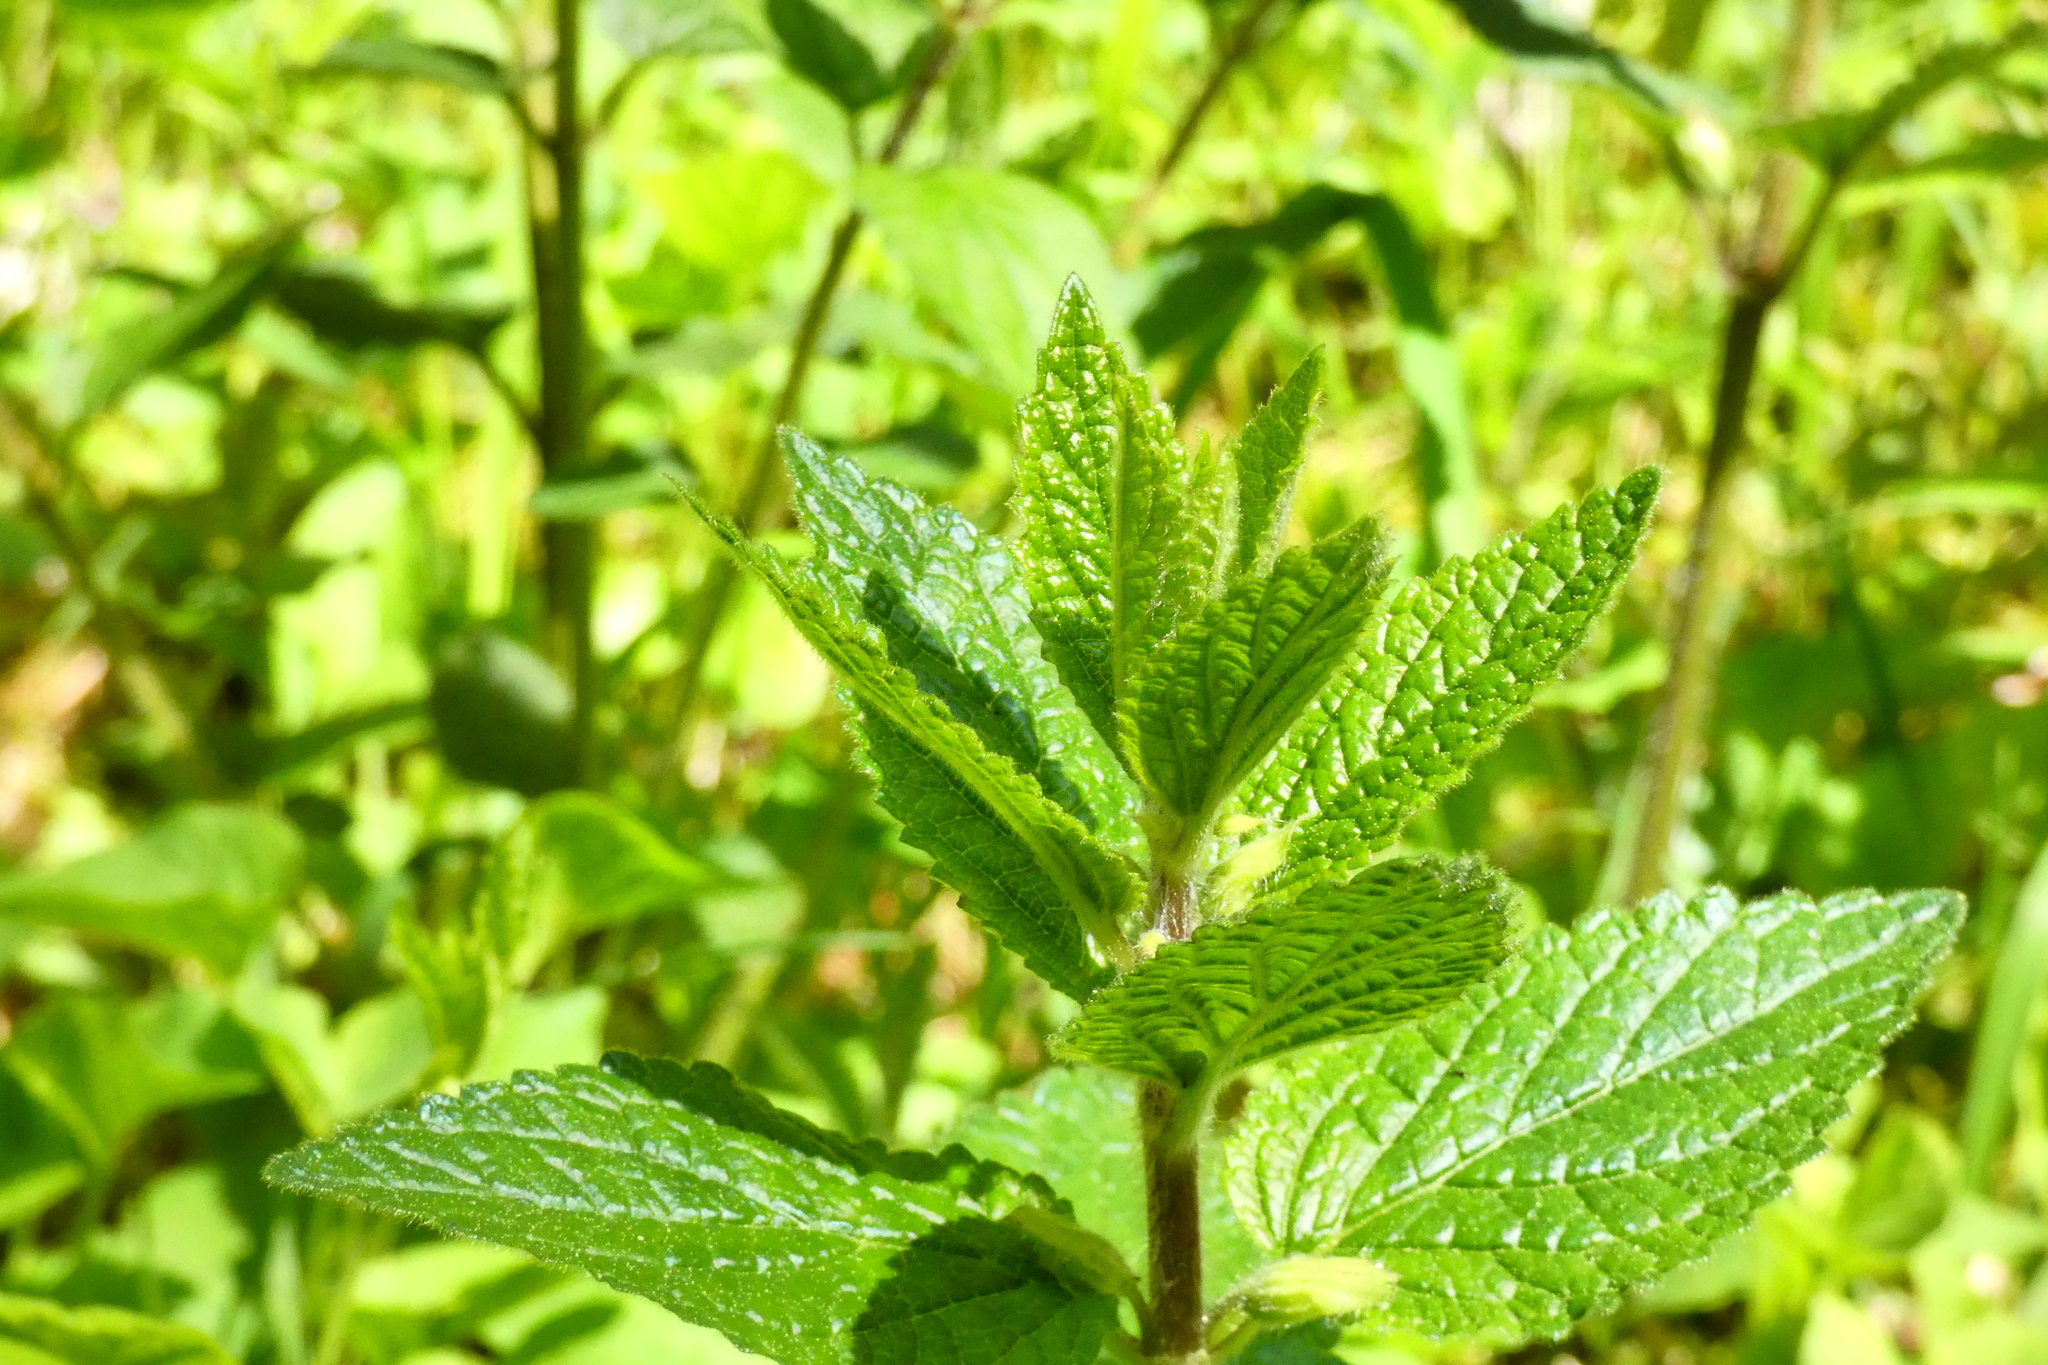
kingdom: Plantae
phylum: Tracheophyta
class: Magnoliopsida
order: Lamiales
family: Lamiaceae
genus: Melittis
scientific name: Melittis melissophyllum
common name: Bastard balm
